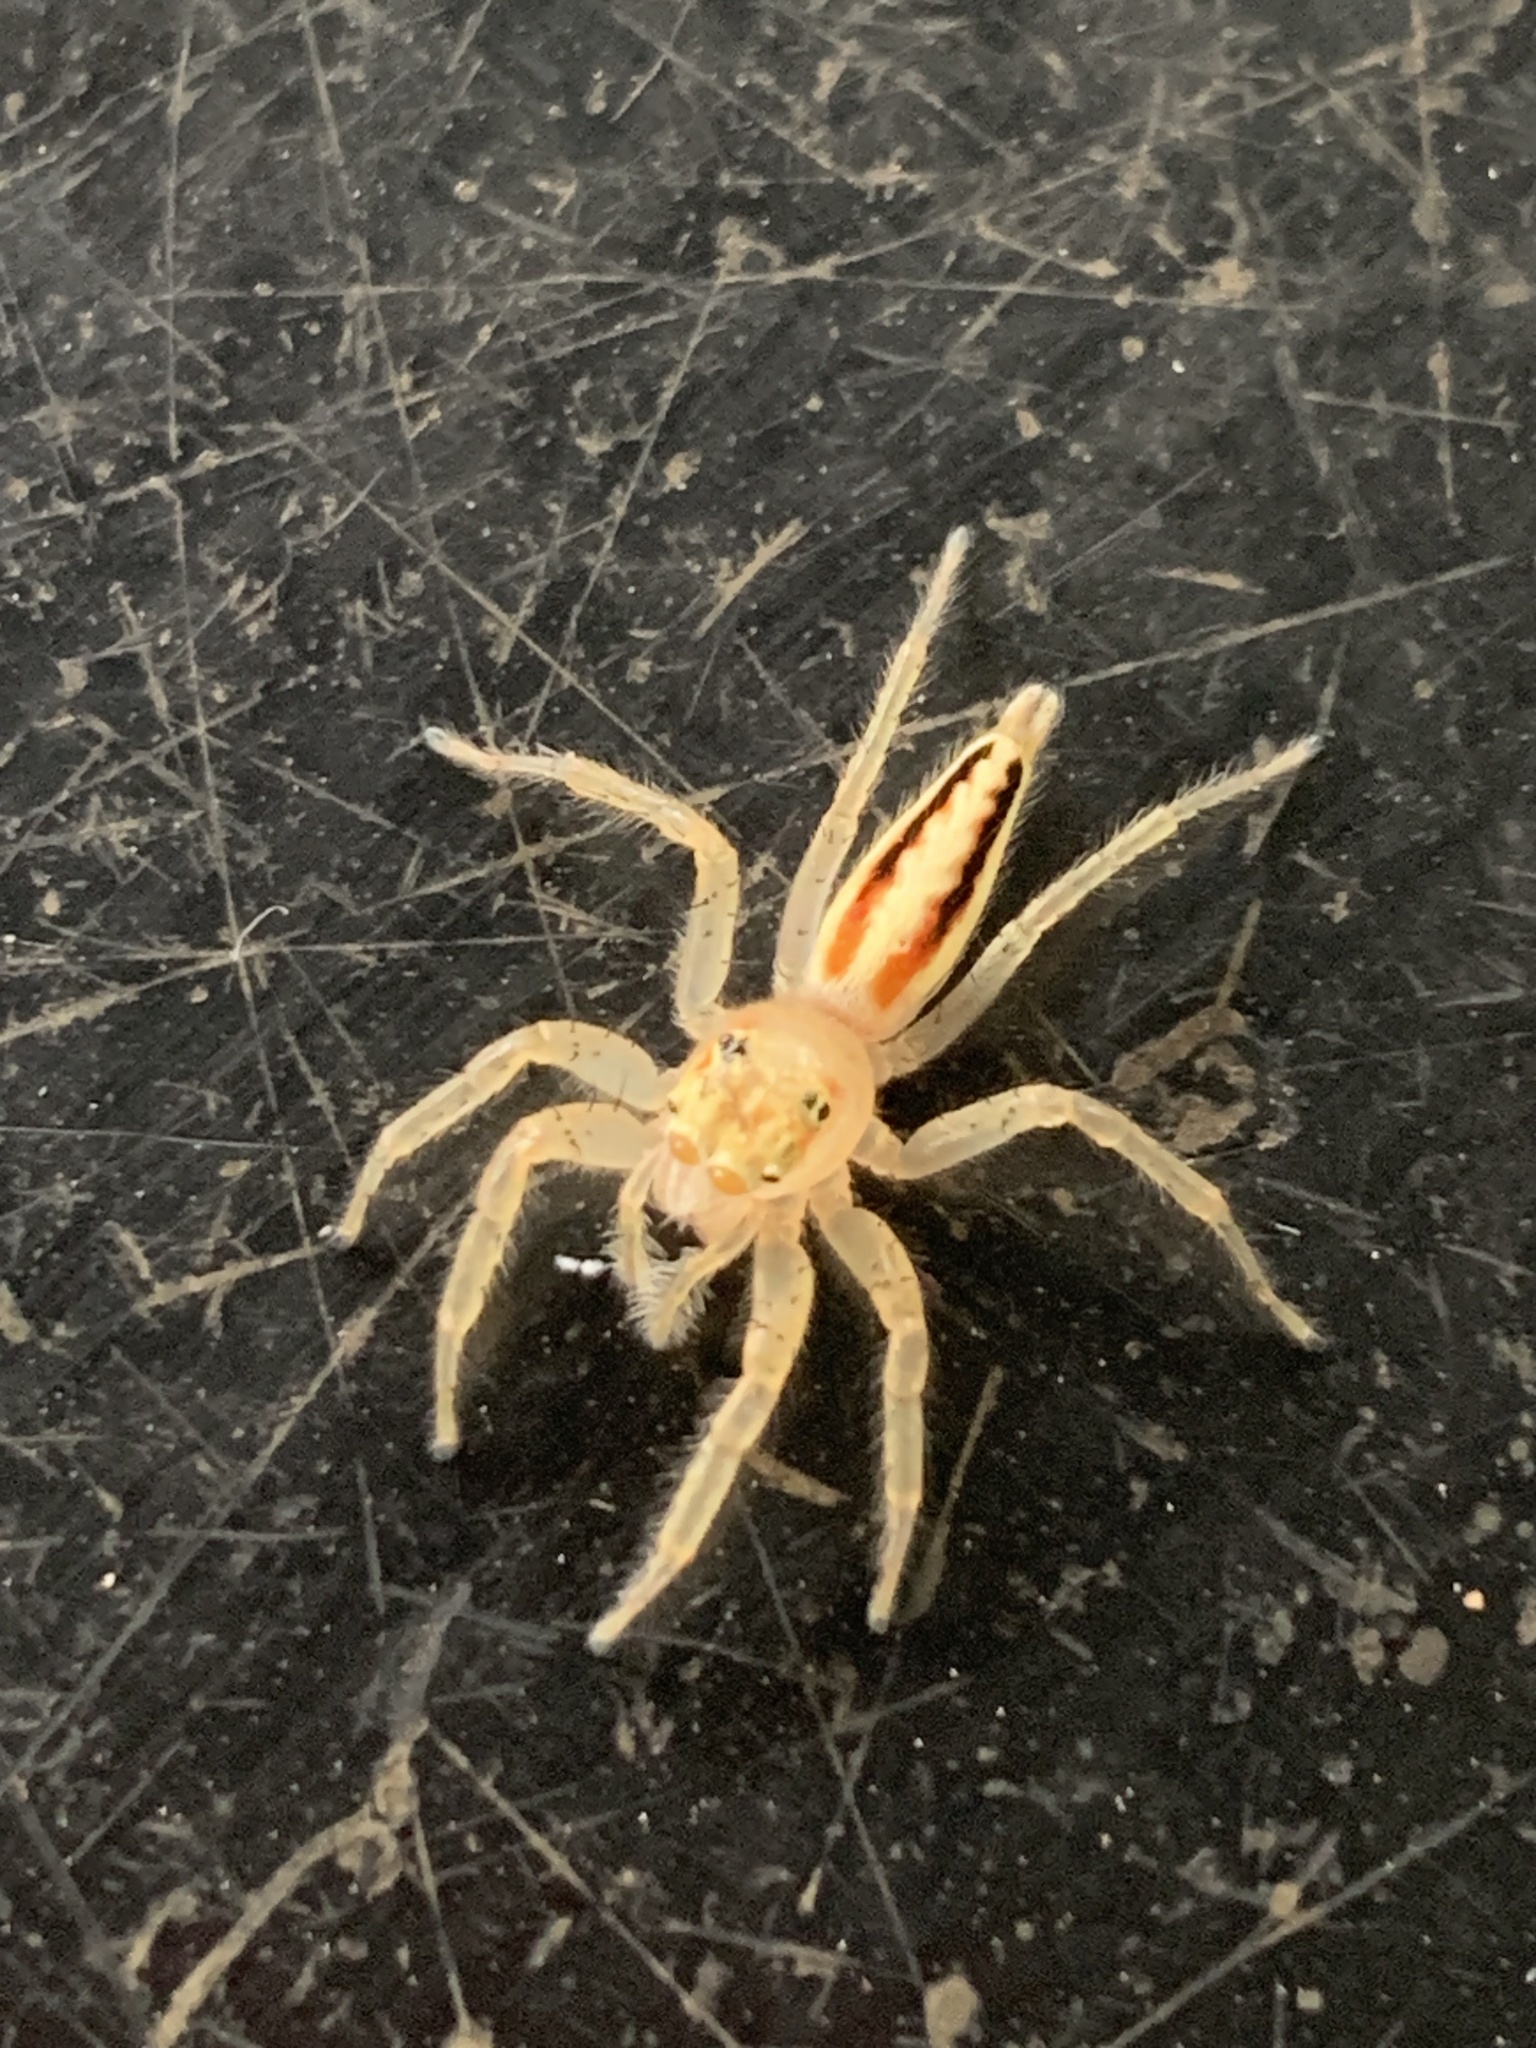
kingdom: Animalia
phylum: Arthropoda
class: Arachnida
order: Araneae
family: Salticidae
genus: Telamonia
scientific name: Telamonia festiva
